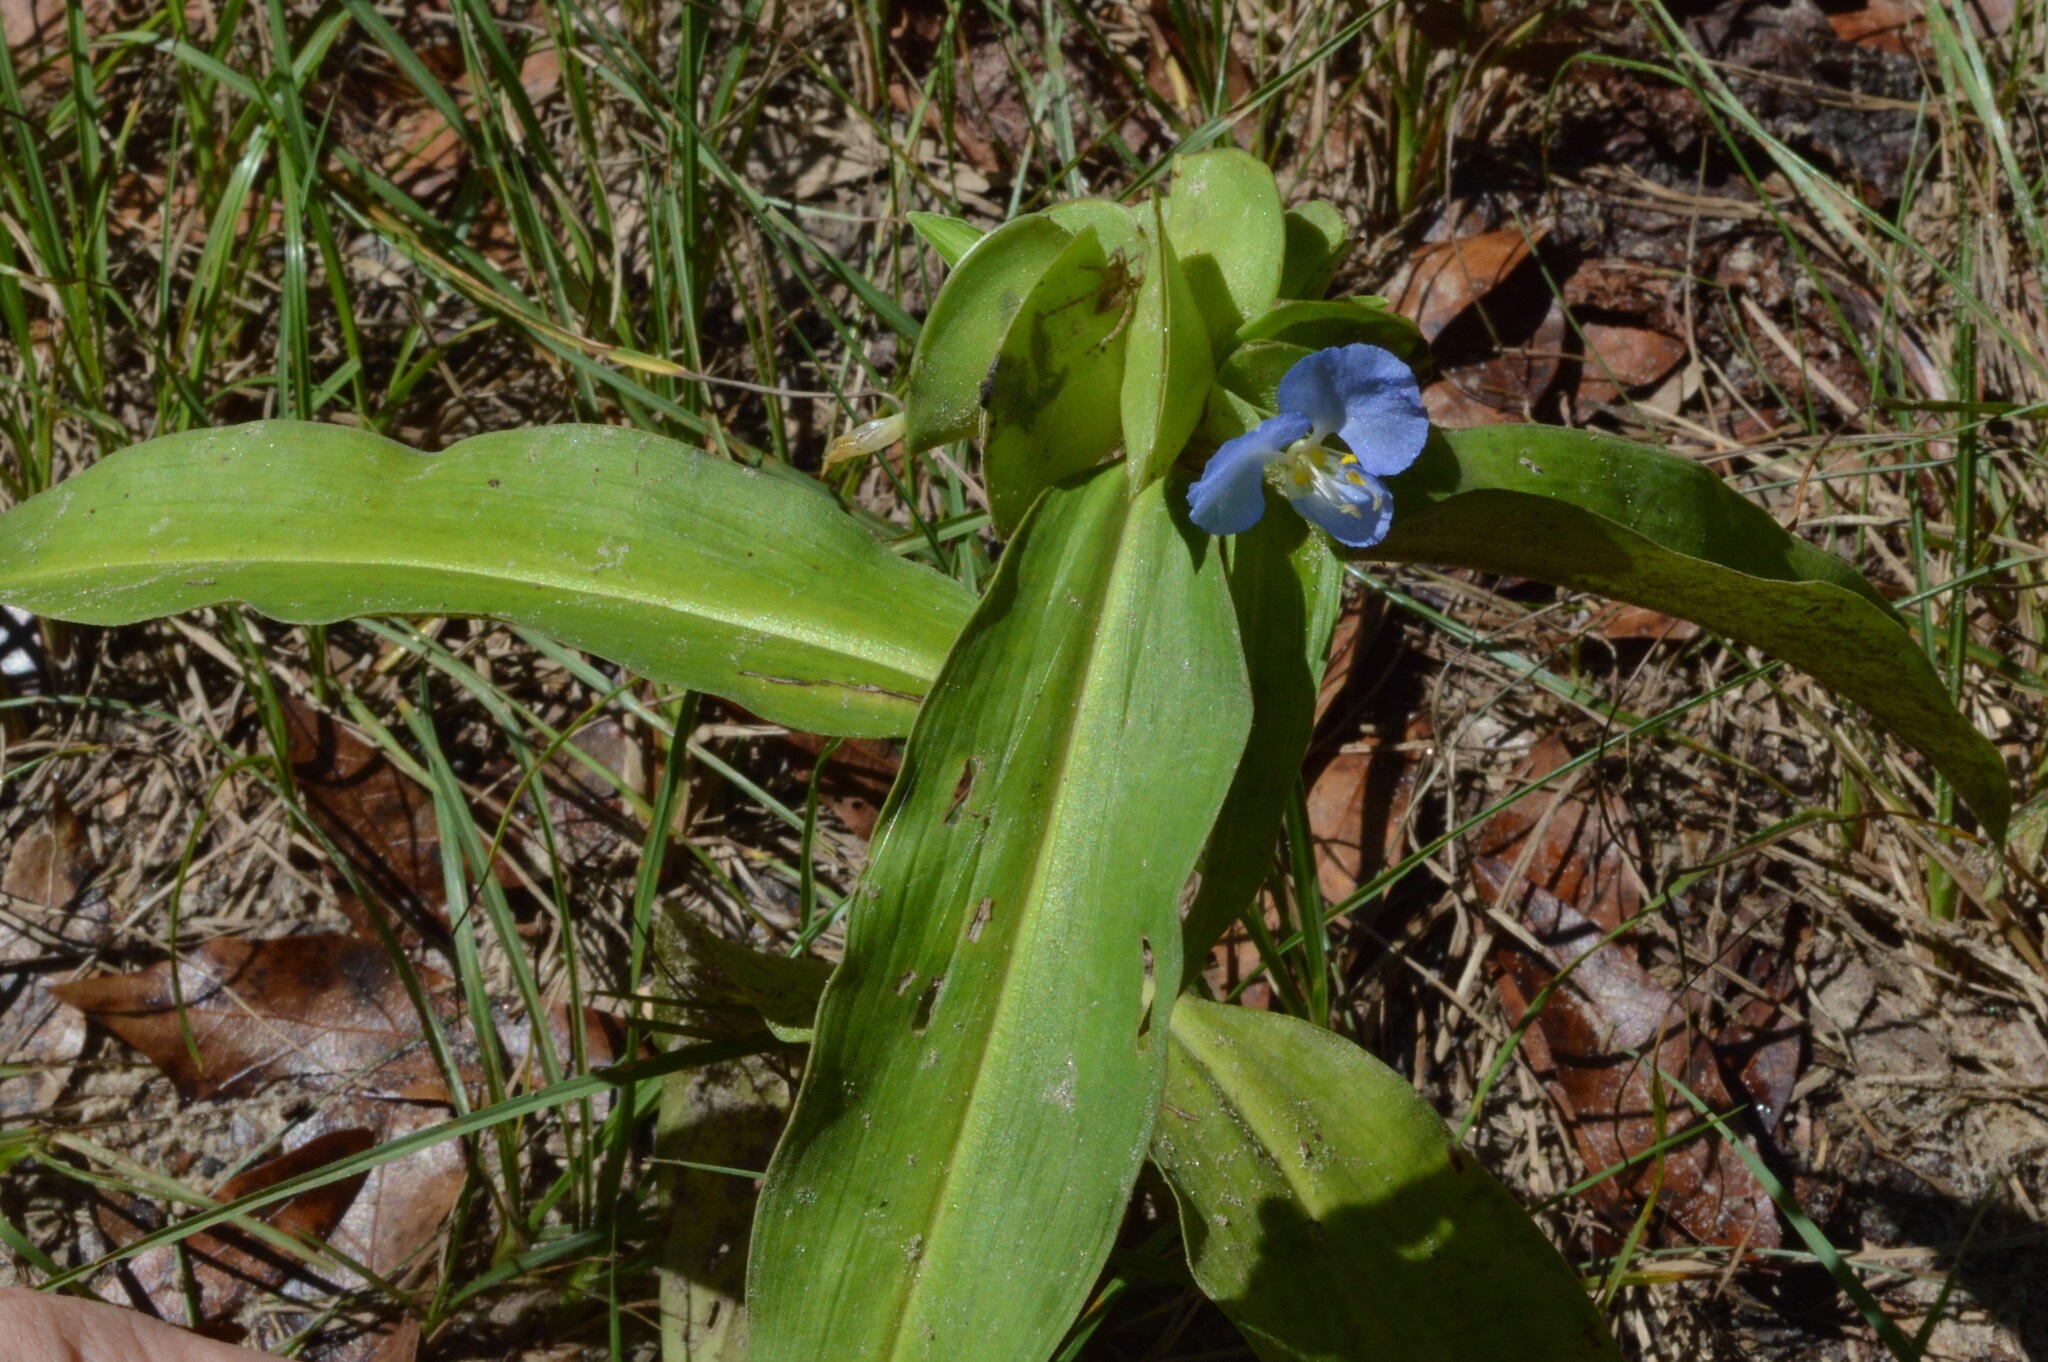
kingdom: Plantae
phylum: Tracheophyta
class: Liliopsida
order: Commelinales
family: Commelinaceae
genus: Commelina
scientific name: Commelina virginica
